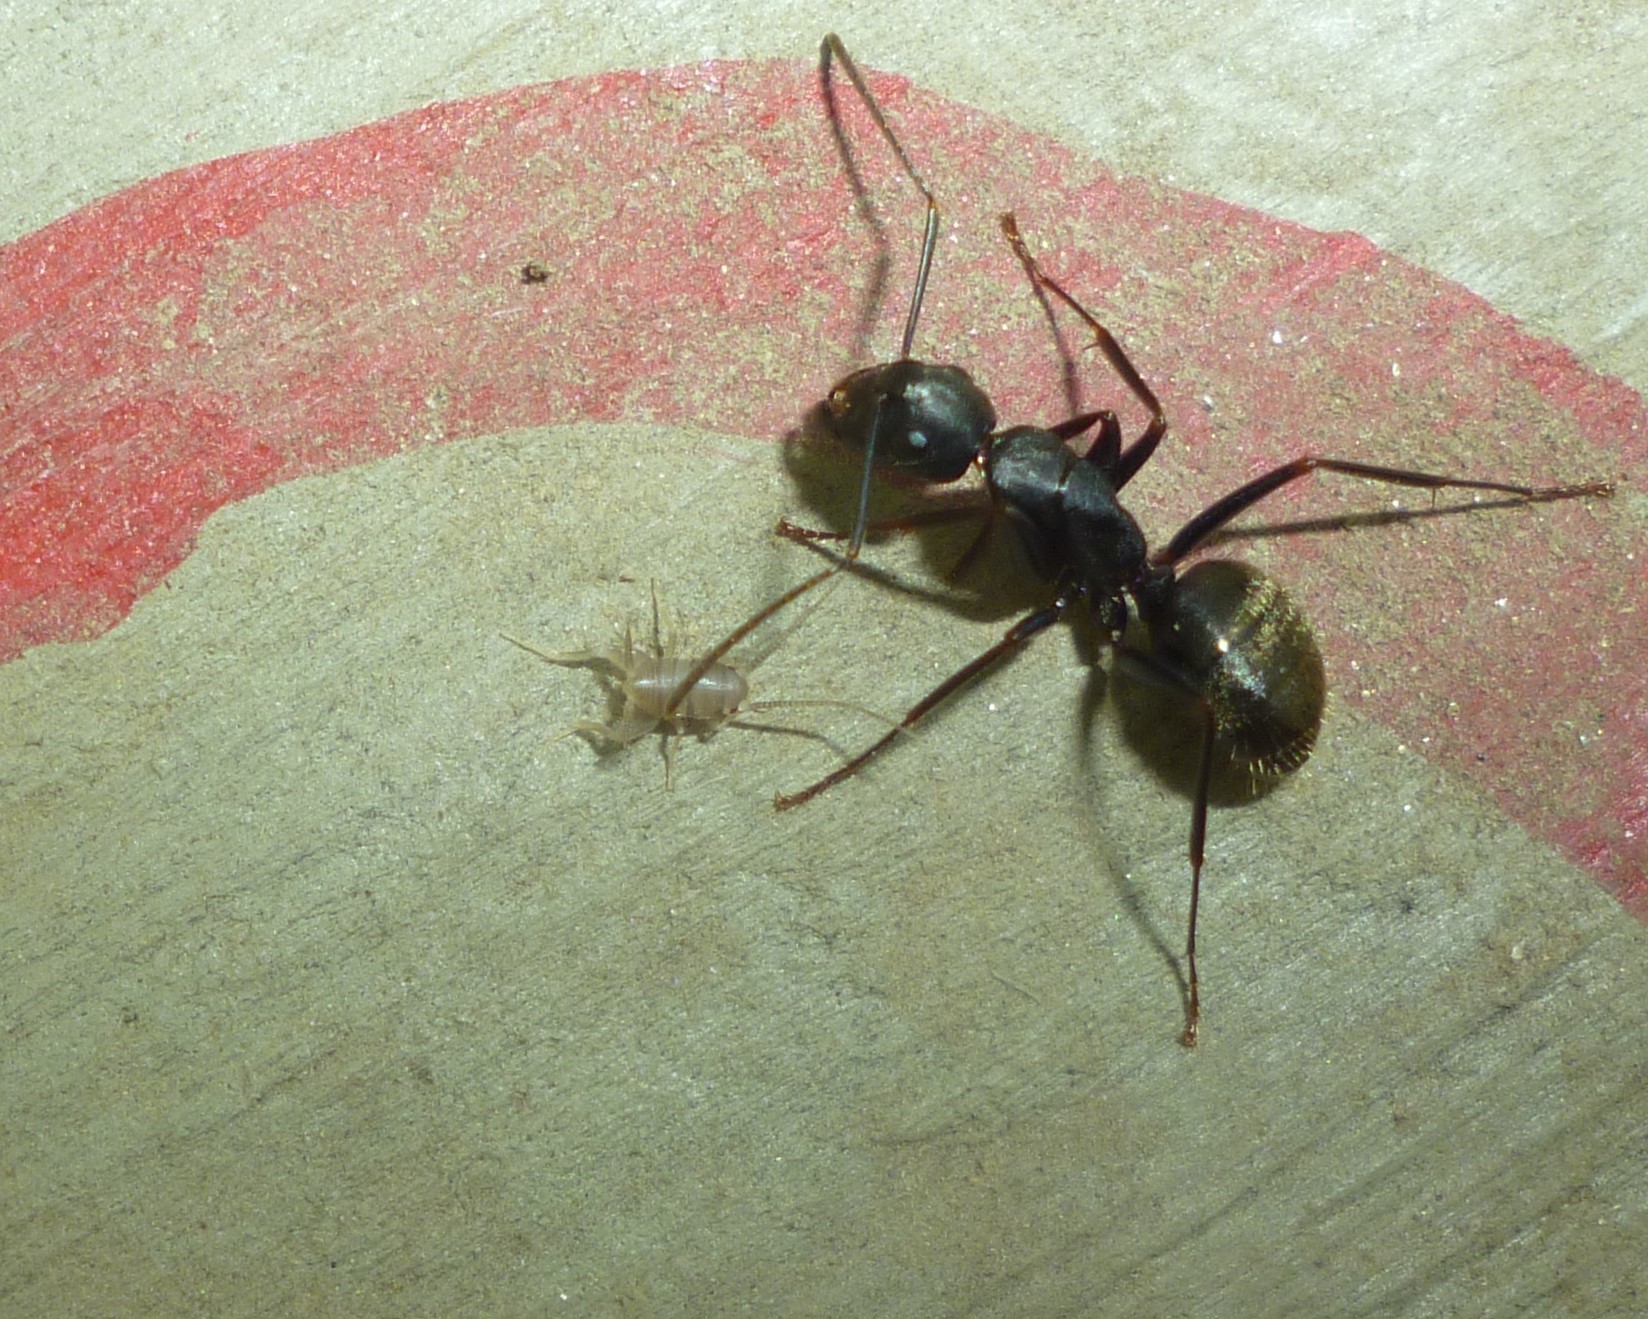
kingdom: Animalia
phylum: Arthropoda
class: Insecta
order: Orthoptera
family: Myrmecophilidae
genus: Myrmecophilus
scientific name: Myrmecophilus pergandei
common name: Eastern ant cricket
